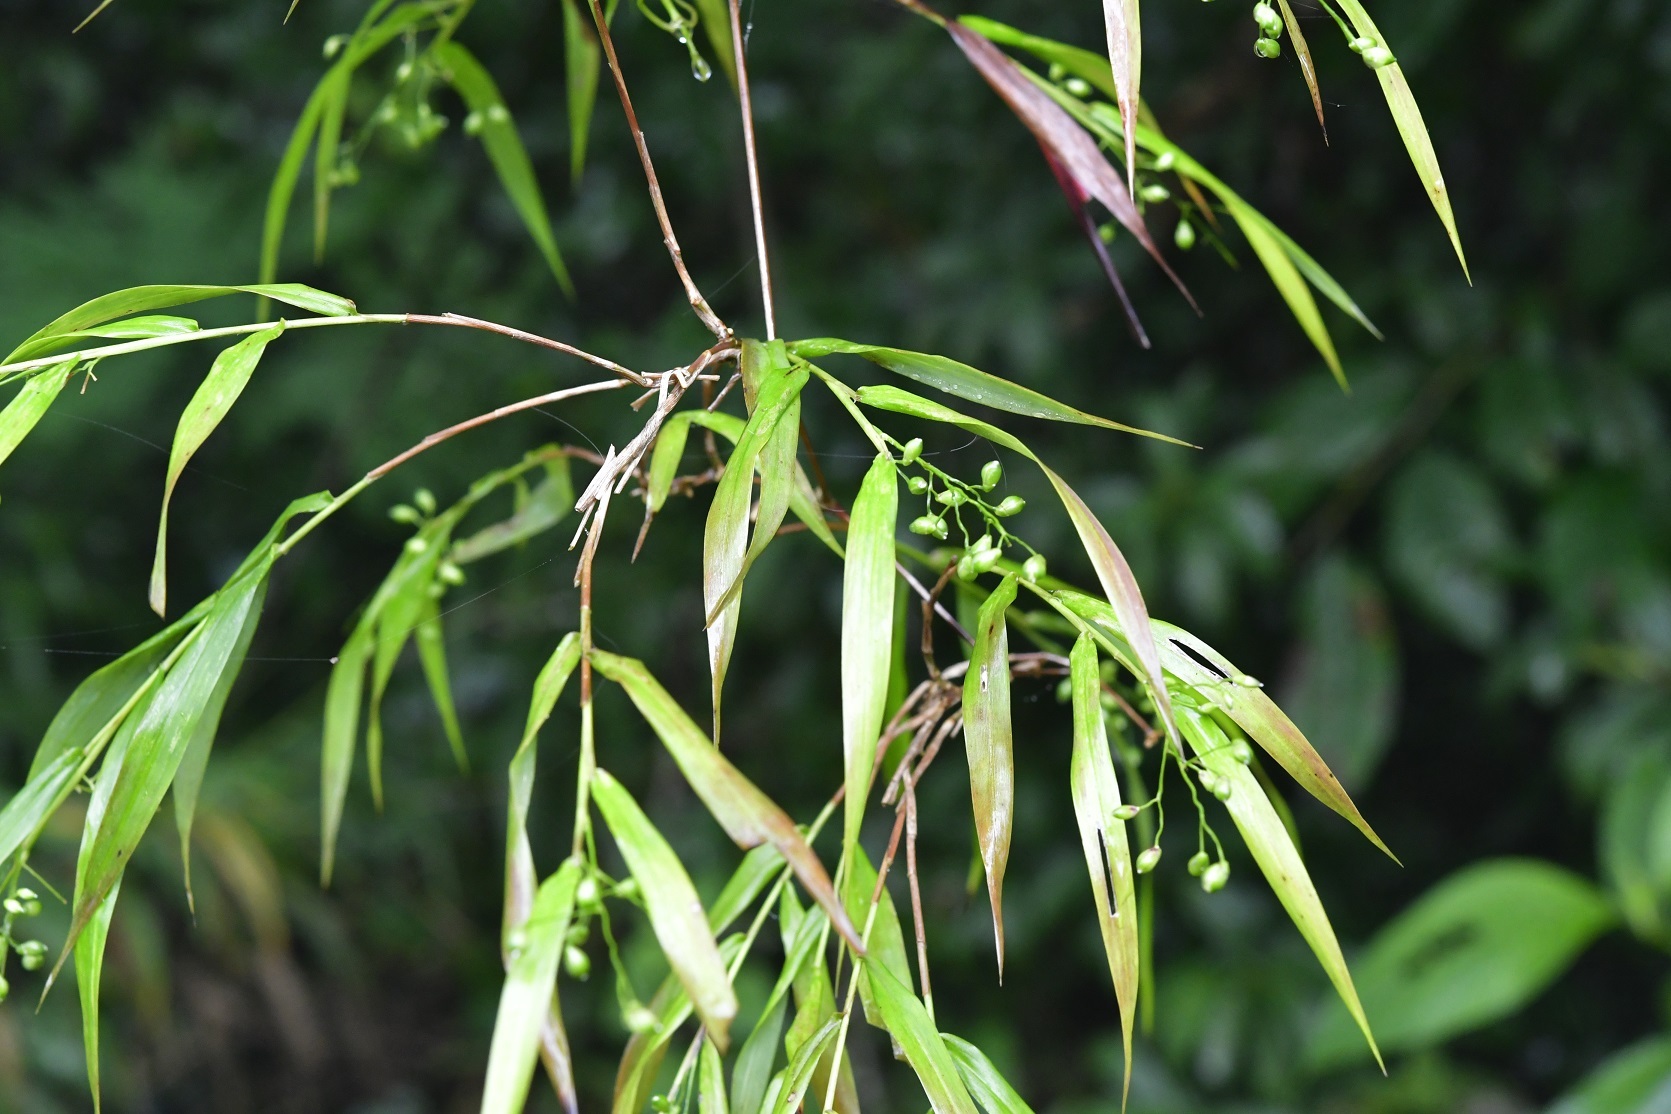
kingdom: Plantae
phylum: Tracheophyta
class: Liliopsida
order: Poales
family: Poaceae
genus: Lasiacis
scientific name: Lasiacis nigra
